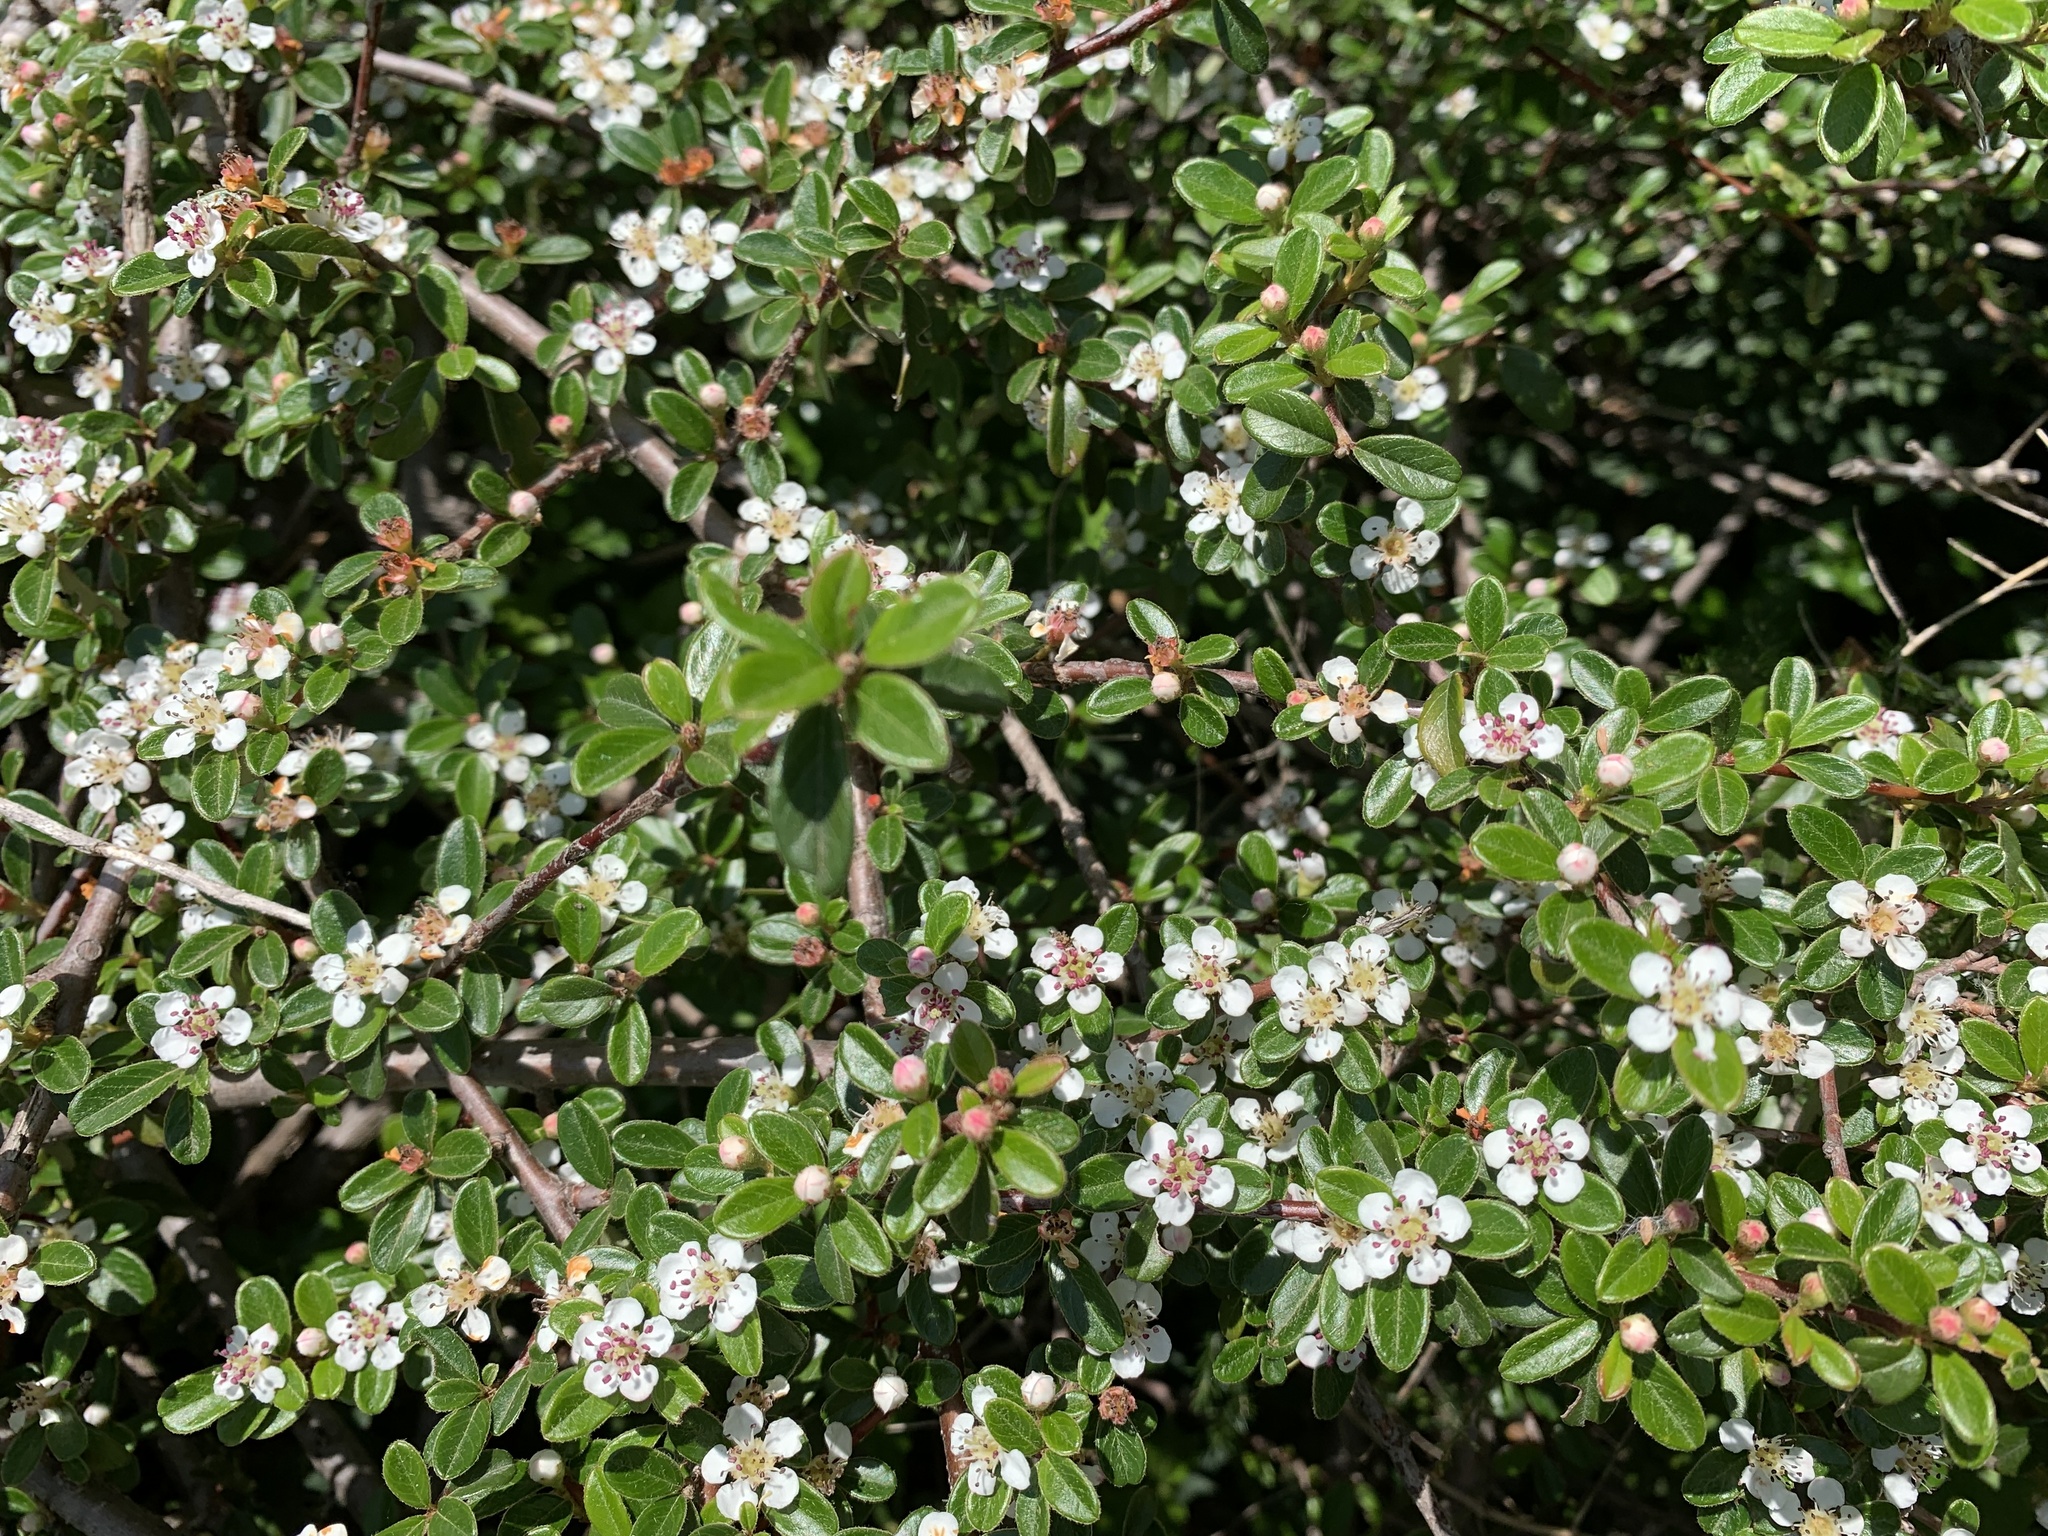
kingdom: Plantae
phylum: Tracheophyta
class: Magnoliopsida
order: Rosales
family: Rosaceae
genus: Cotoneaster
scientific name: Cotoneaster suecicus
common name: Swedish cotoneaster
